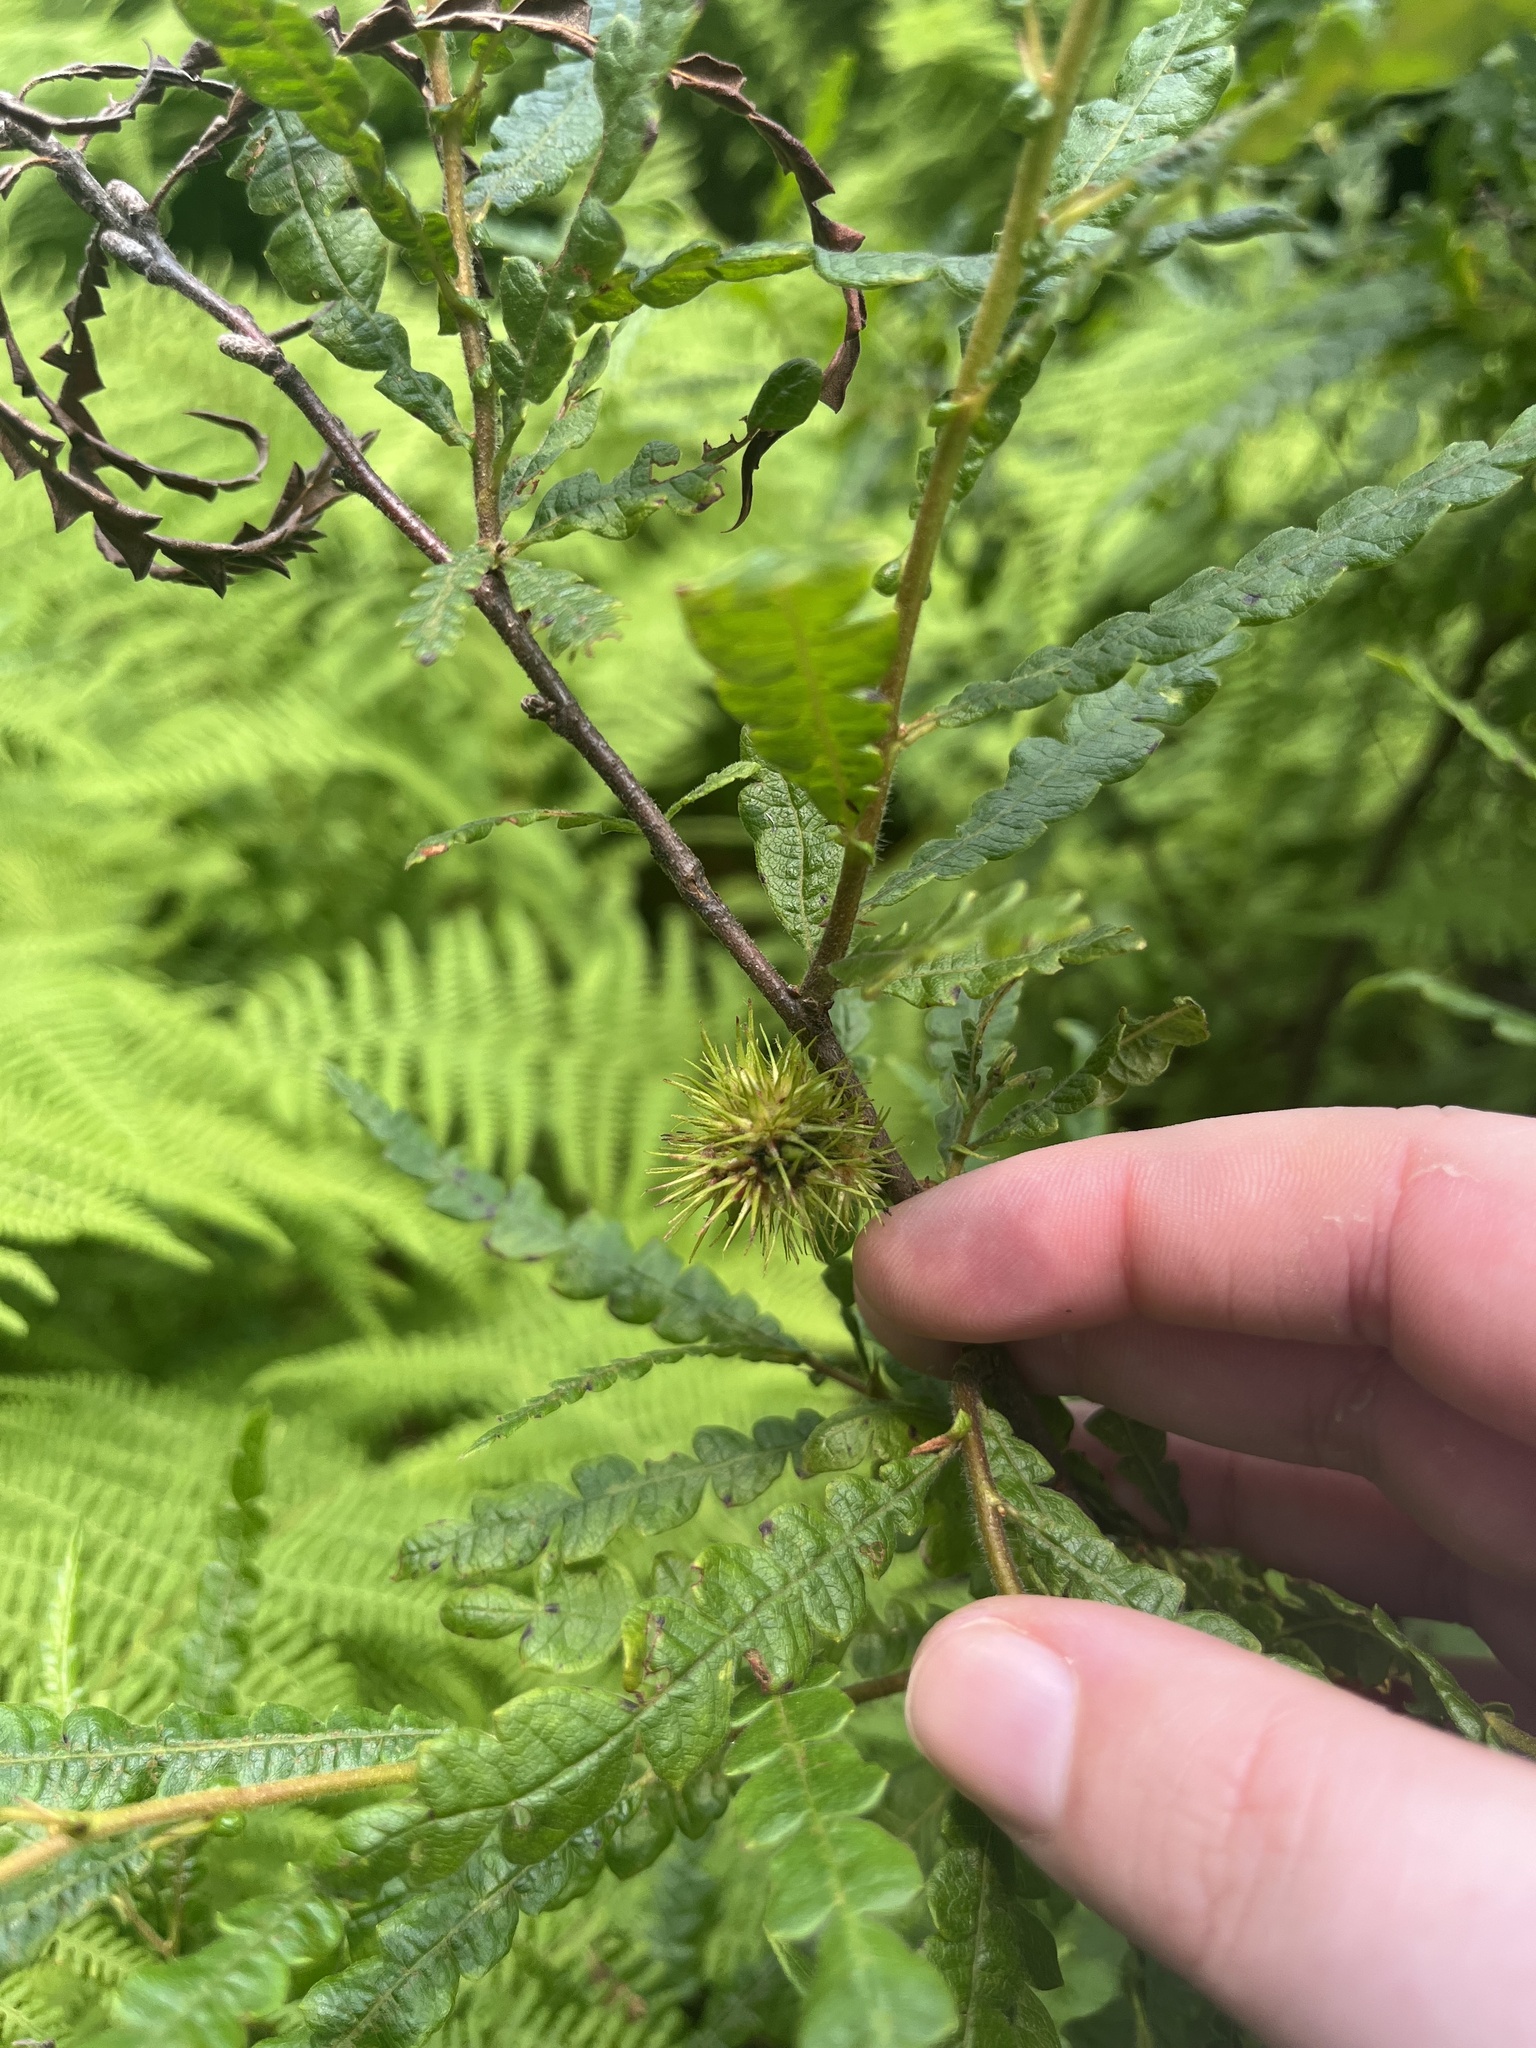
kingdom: Plantae
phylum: Tracheophyta
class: Magnoliopsida
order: Fagales
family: Myricaceae
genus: Comptonia
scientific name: Comptonia peregrina
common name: Sweet-fern
